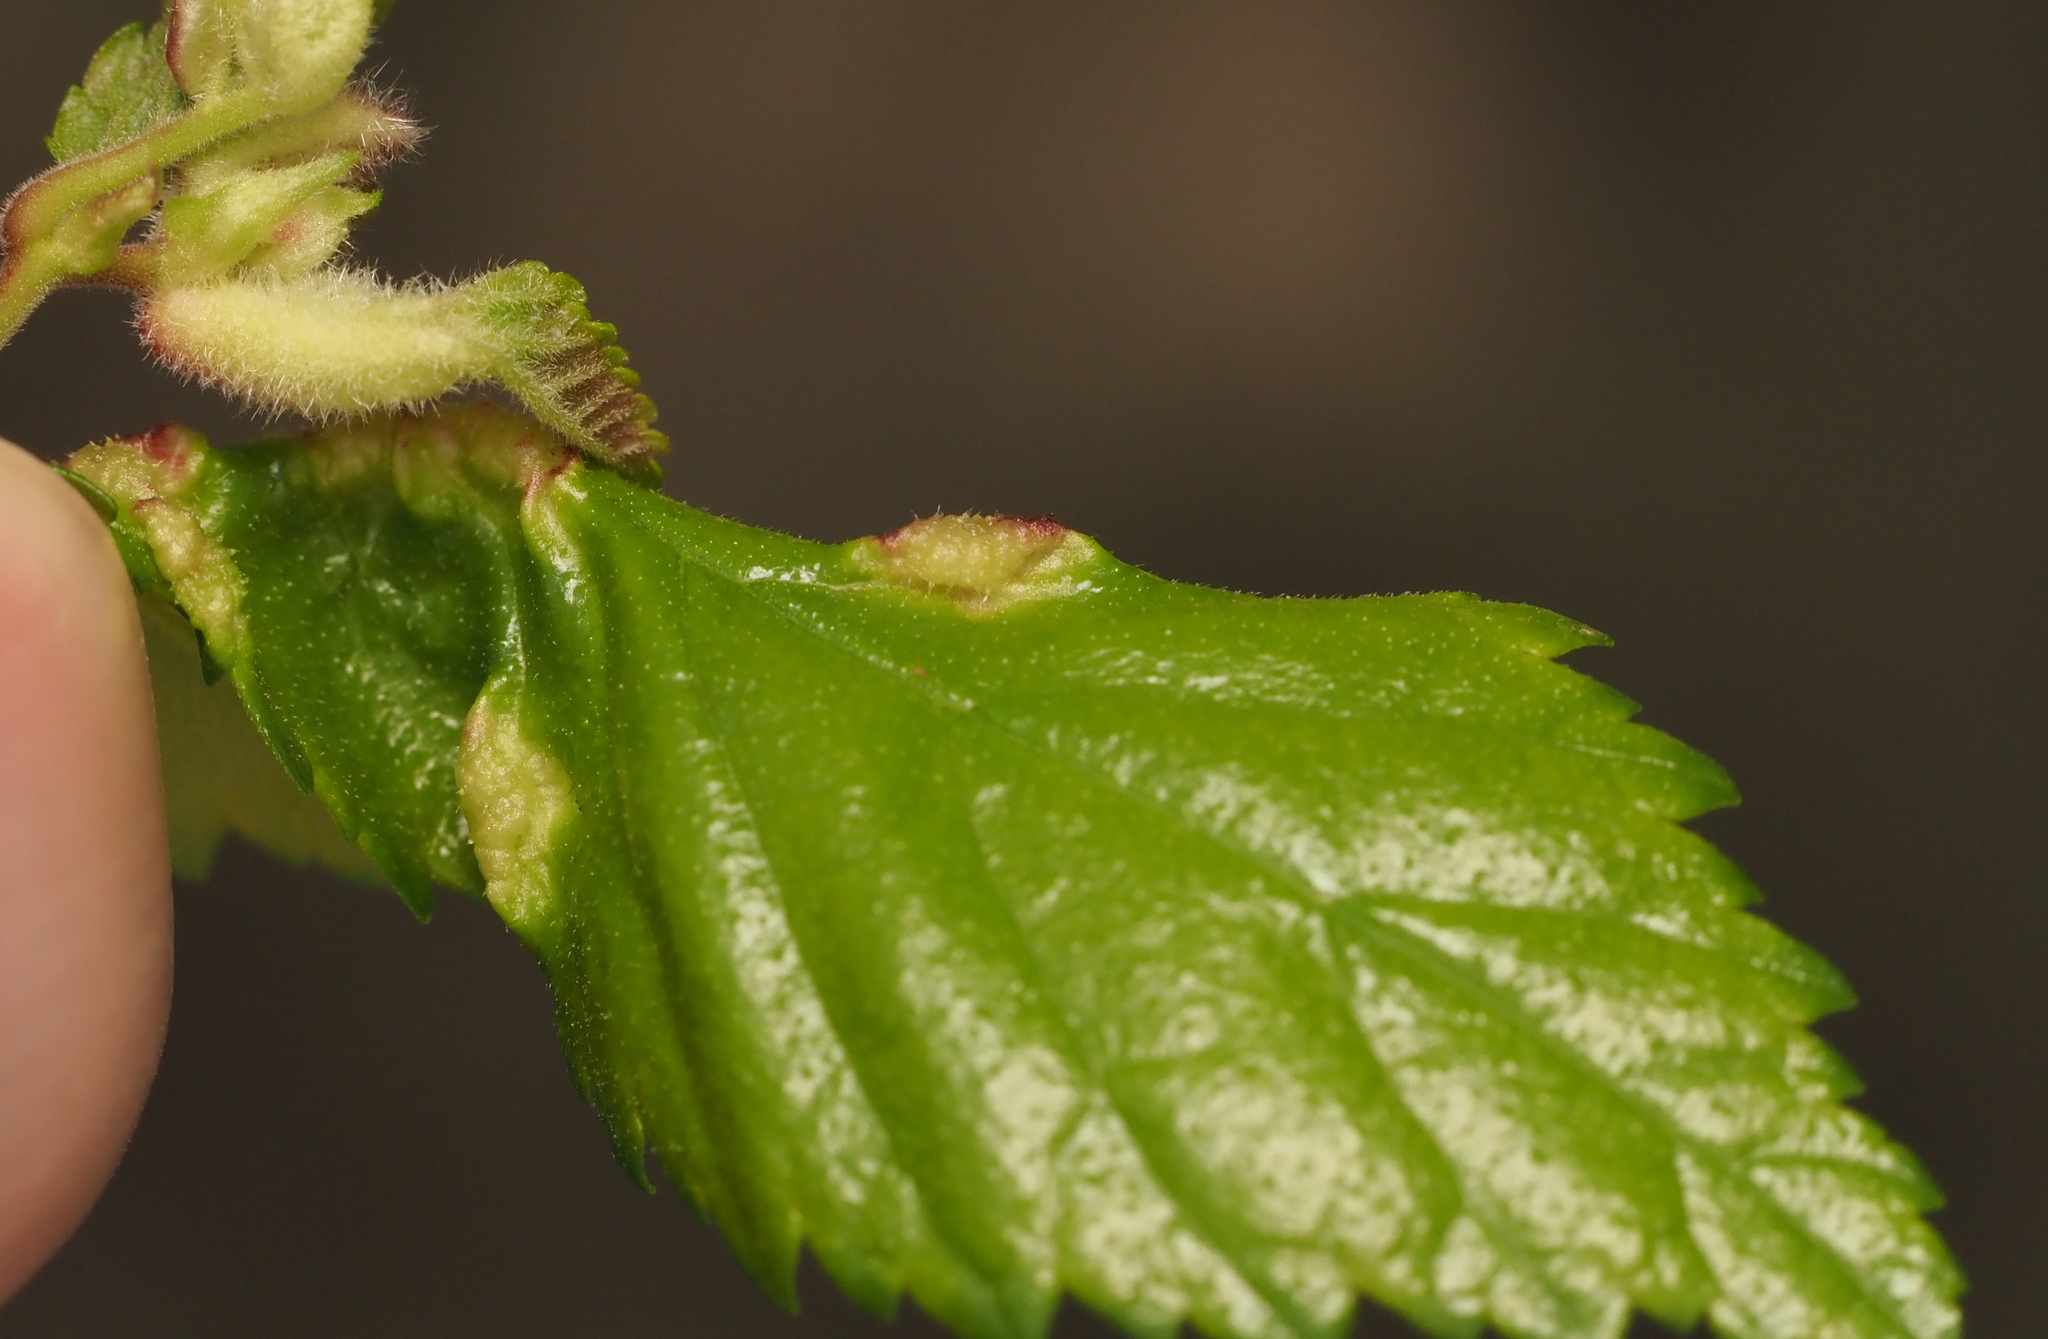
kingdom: Animalia
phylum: Arthropoda
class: Insecta
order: Diptera
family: Cecidomyiidae
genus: Janetiella
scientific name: Janetiella ulmii
